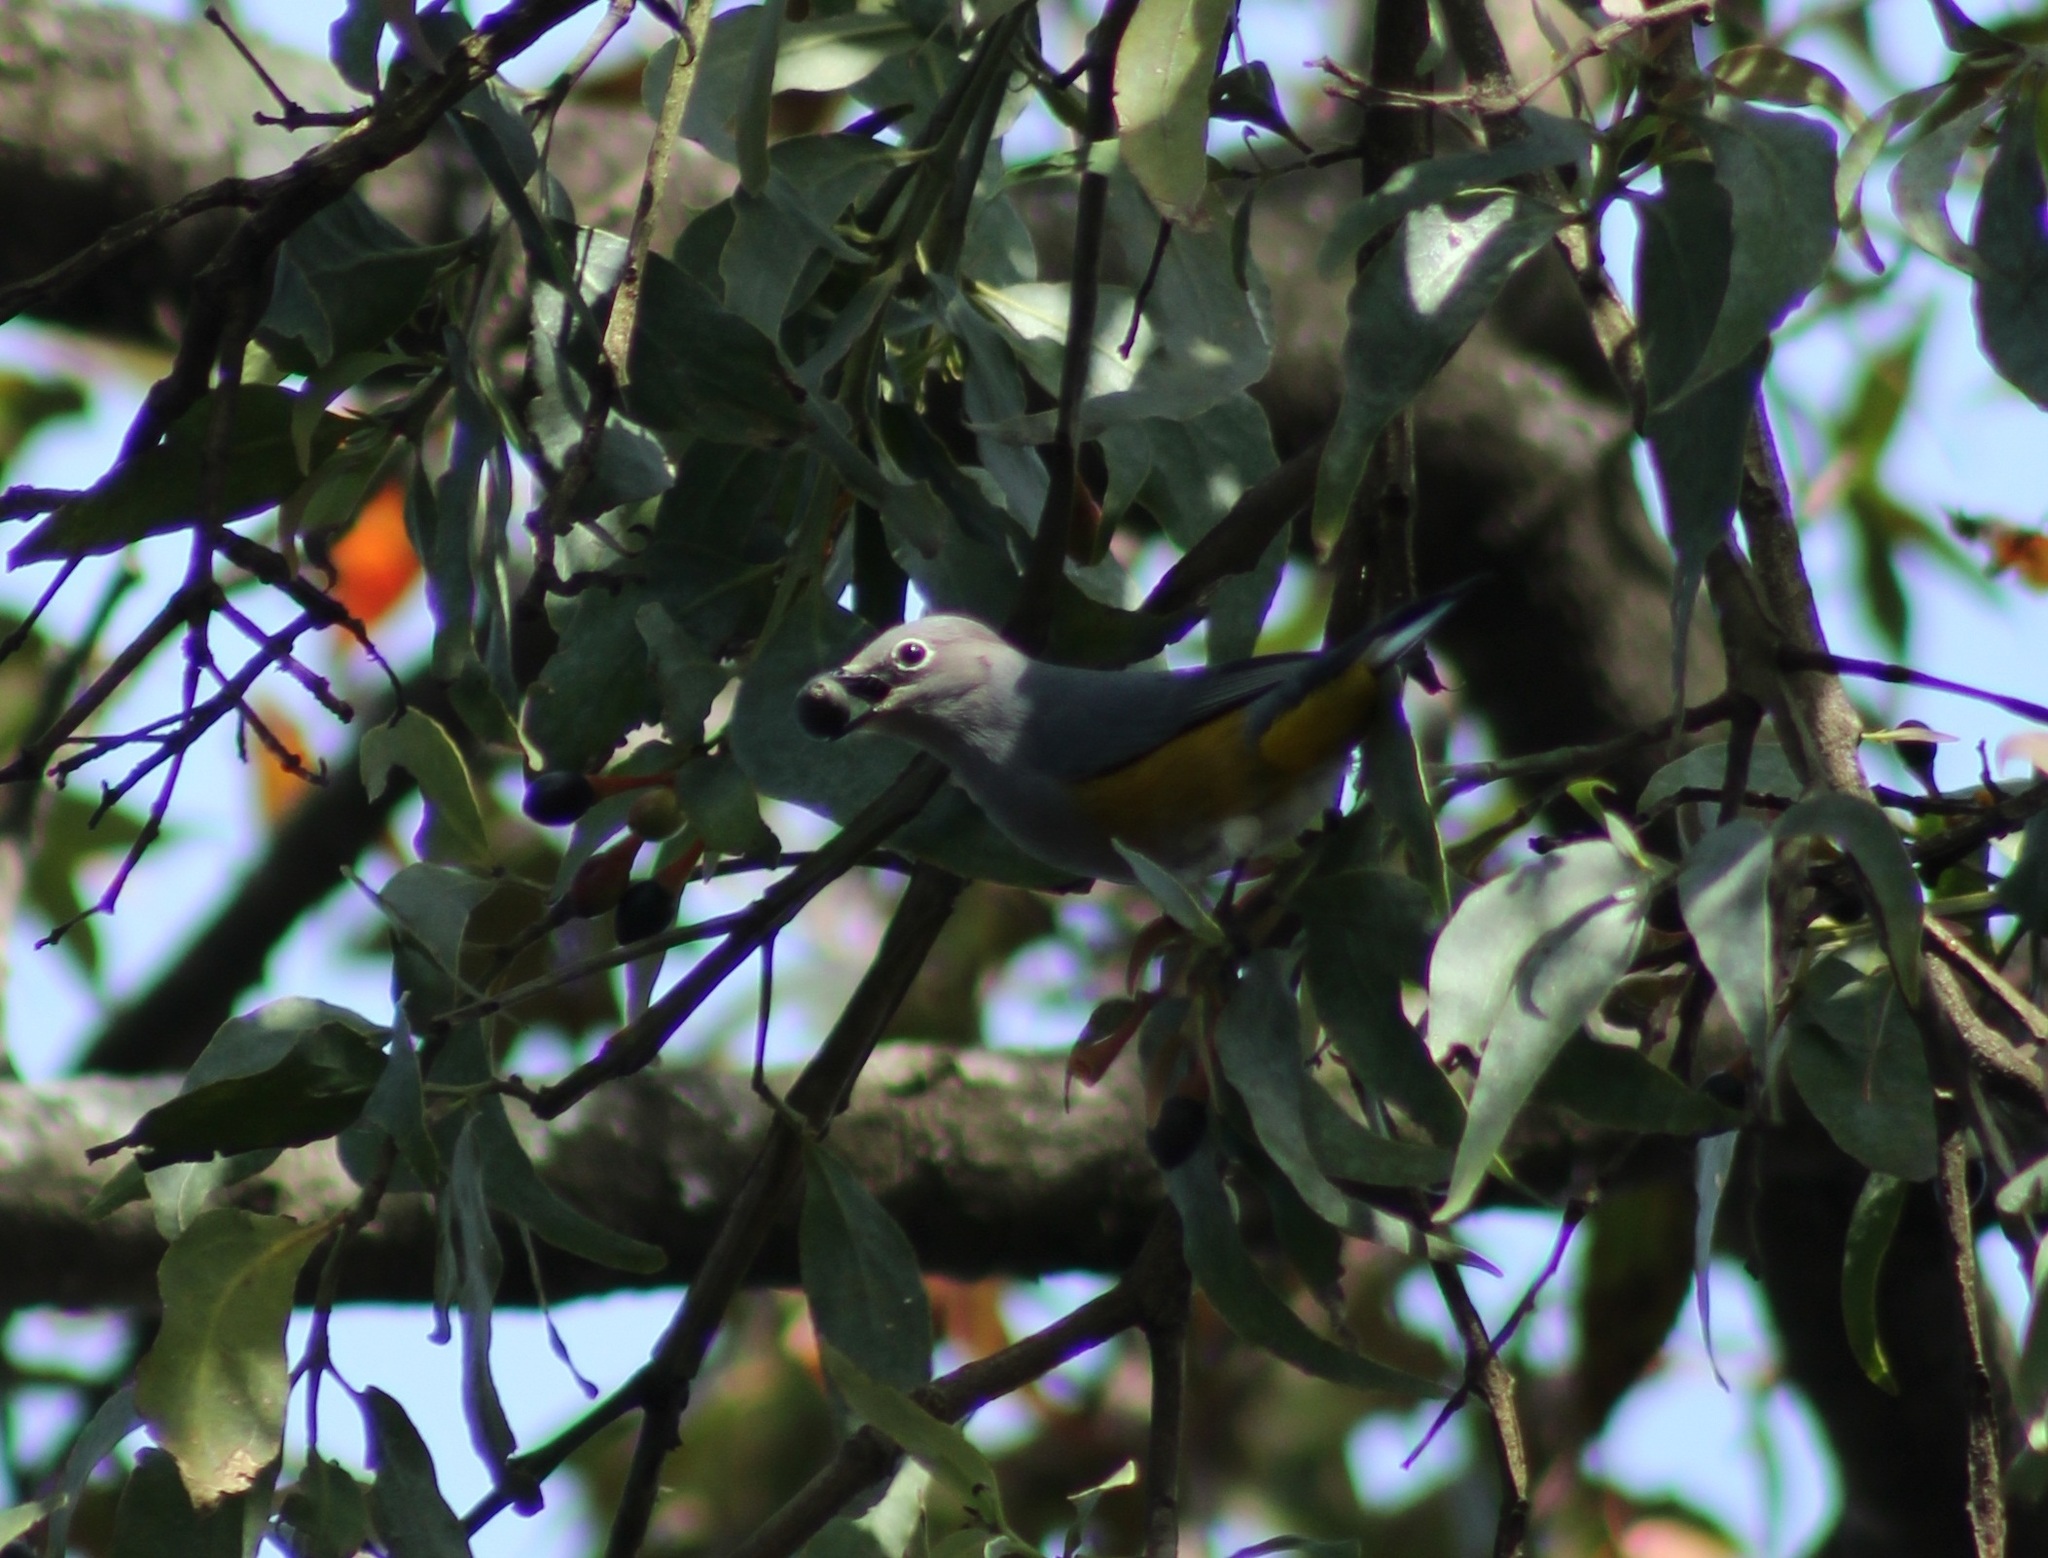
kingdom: Animalia
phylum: Chordata
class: Aves
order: Passeriformes
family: Ptilogonatidae
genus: Ptilogonys
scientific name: Ptilogonys cinereus
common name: Gray silky-flycatcher
